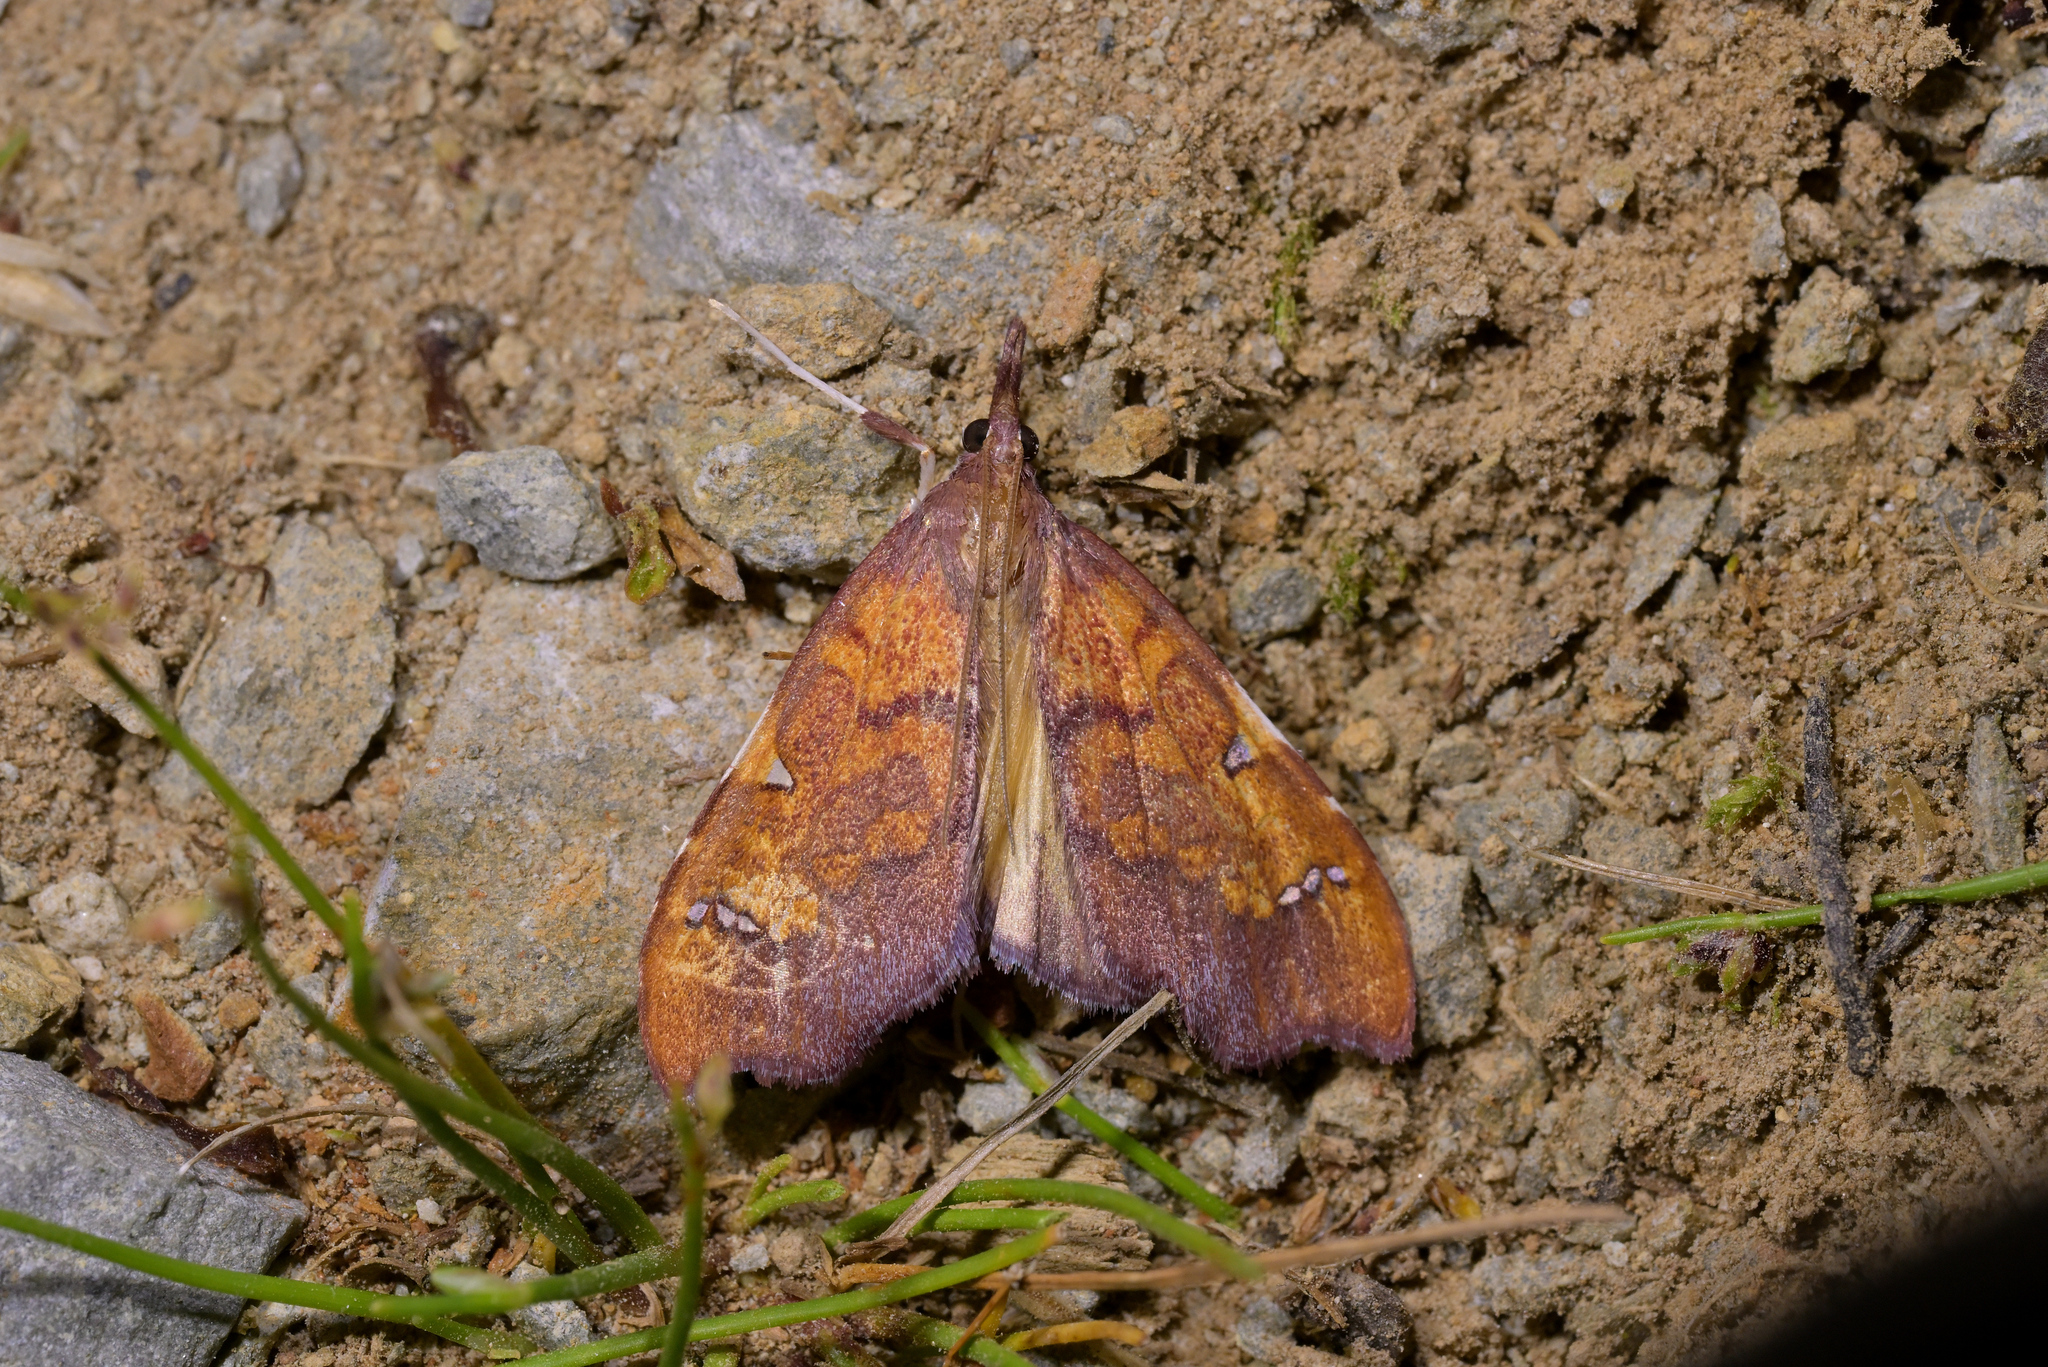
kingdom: Animalia
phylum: Arthropoda
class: Insecta
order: Lepidoptera
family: Crambidae
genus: Deana
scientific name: Deana hybreasalis
